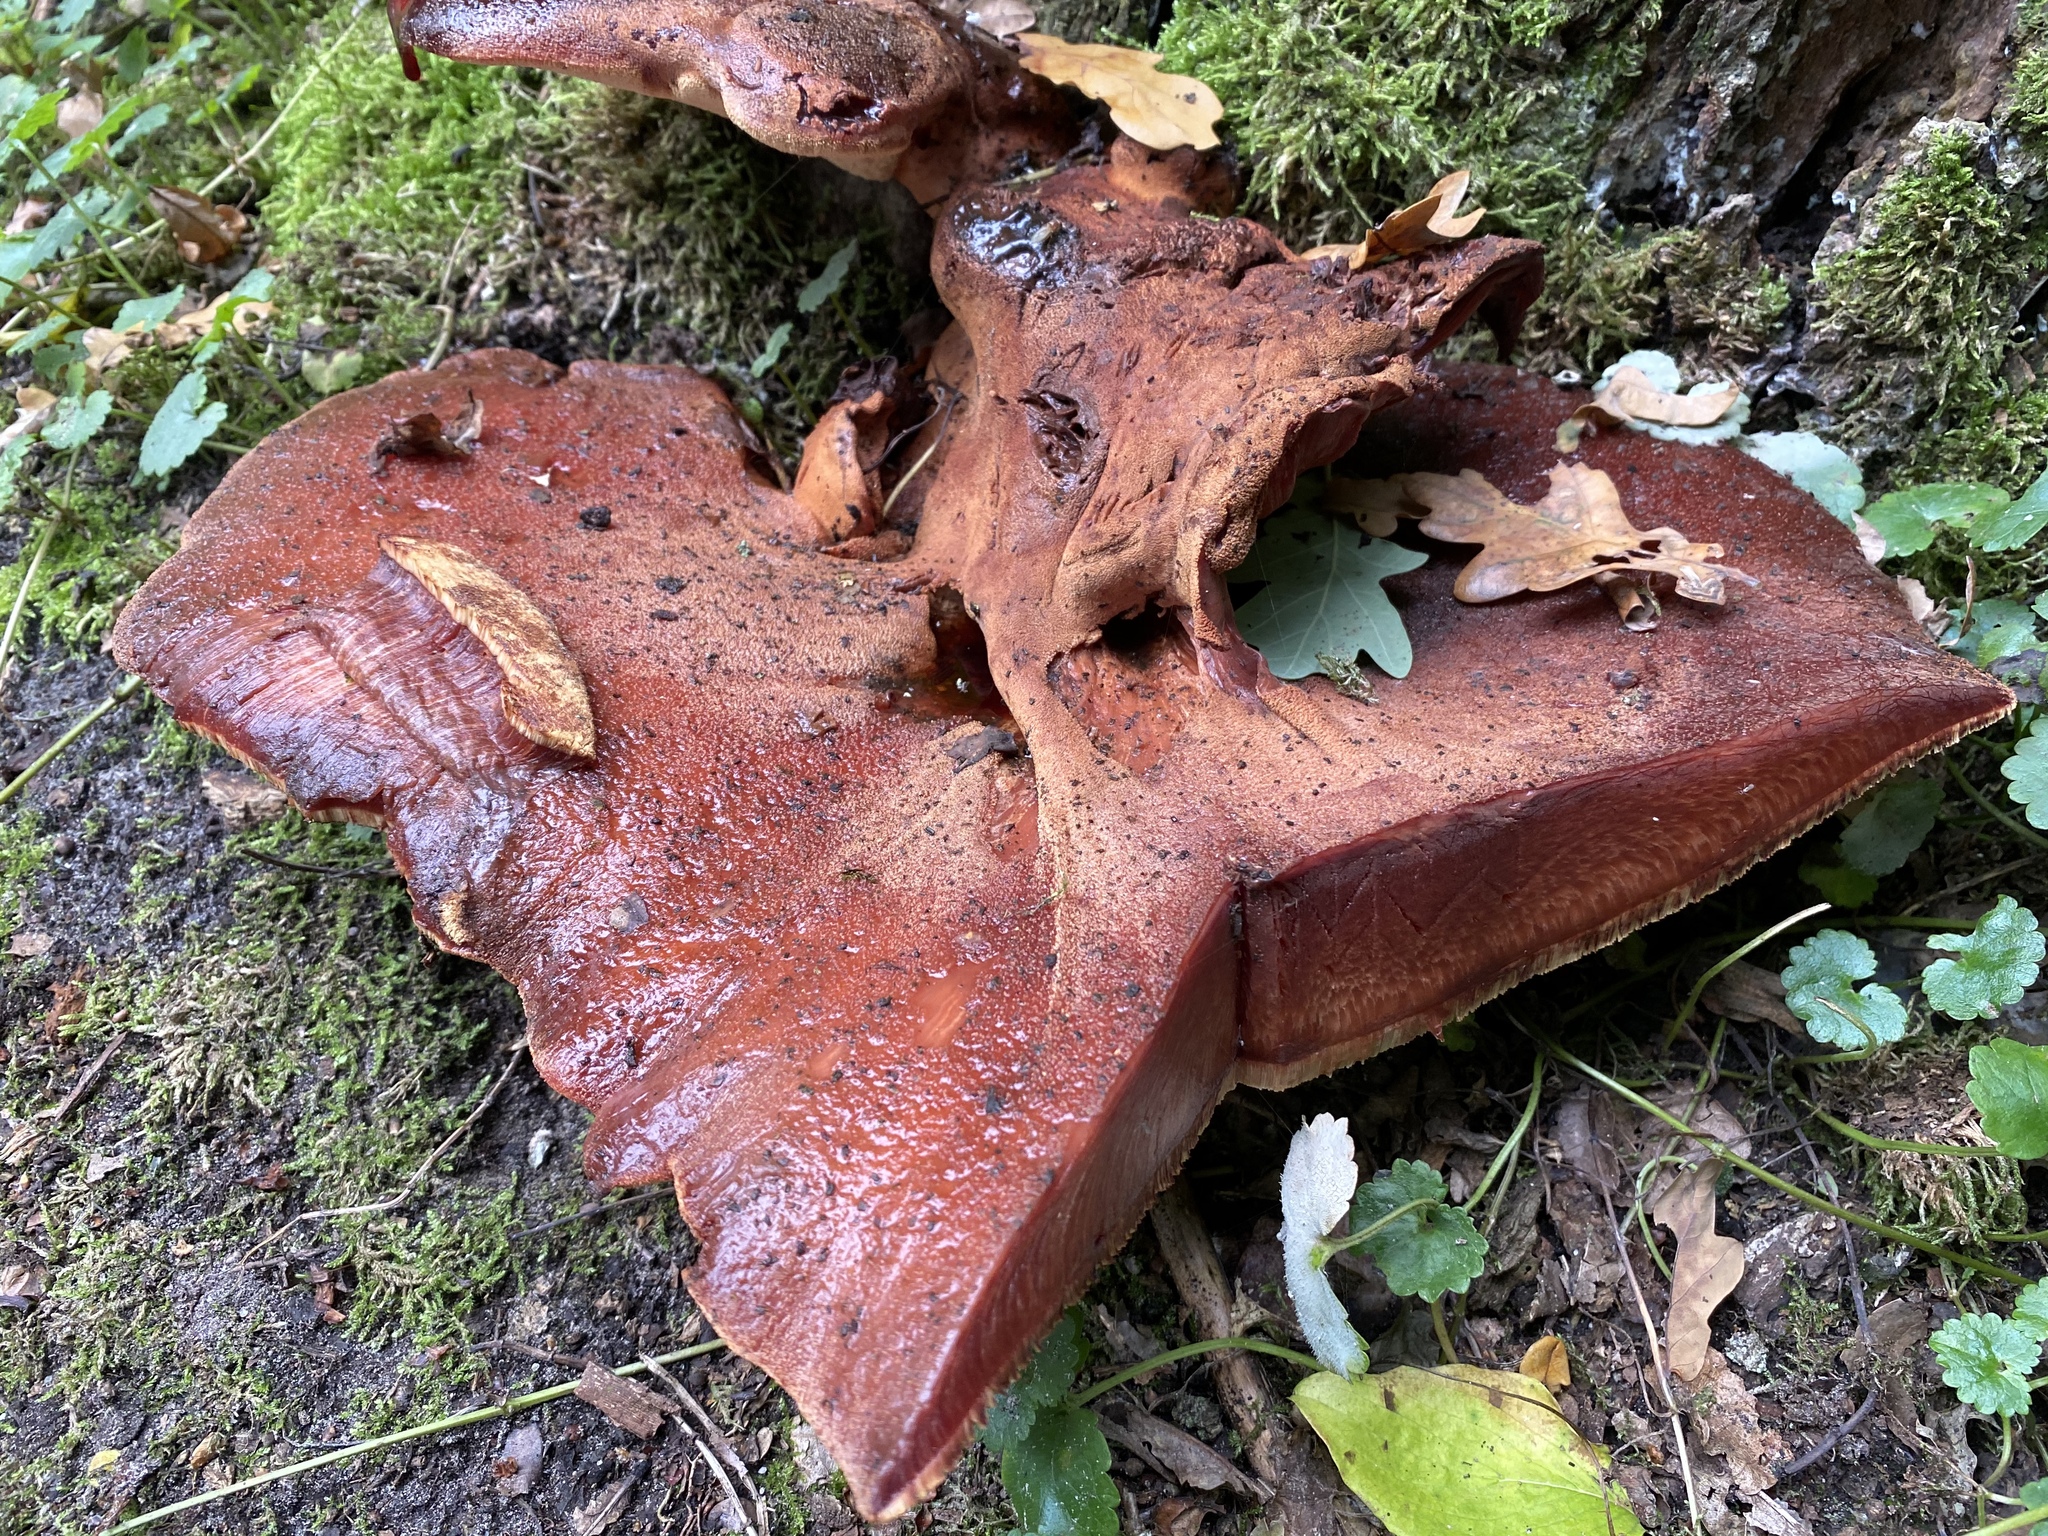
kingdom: Fungi
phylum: Basidiomycota
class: Agaricomycetes
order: Agaricales
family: Fistulinaceae
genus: Fistulina
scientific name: Fistulina hepatica
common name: Beef-steak fungus
